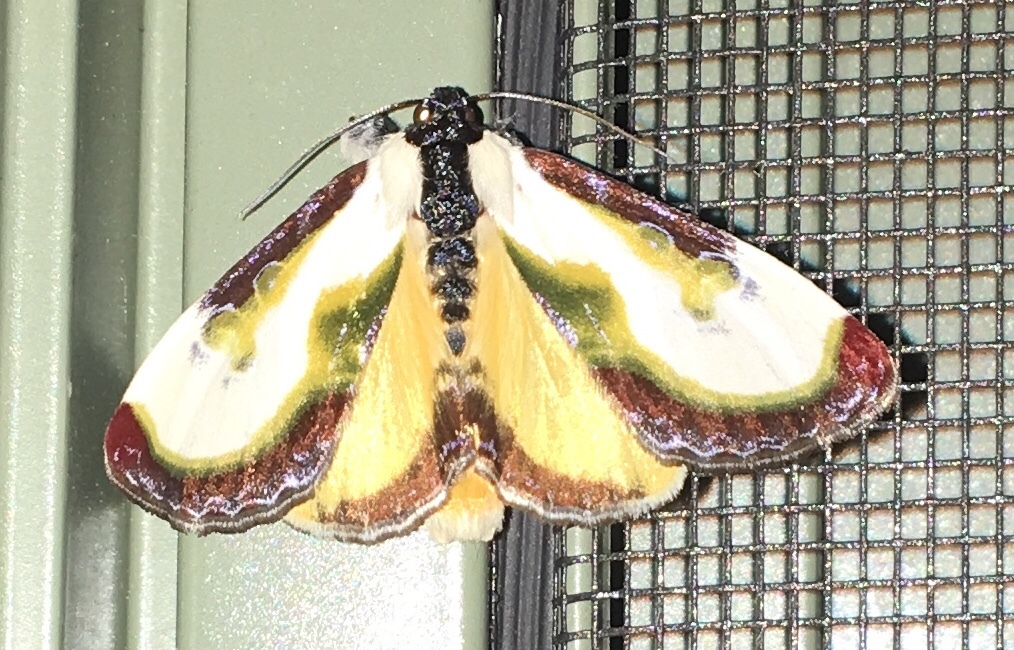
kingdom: Animalia
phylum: Arthropoda
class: Insecta
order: Lepidoptera
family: Noctuidae
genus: Eudryas
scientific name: Eudryas grata
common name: Beautiful wood-nymph
